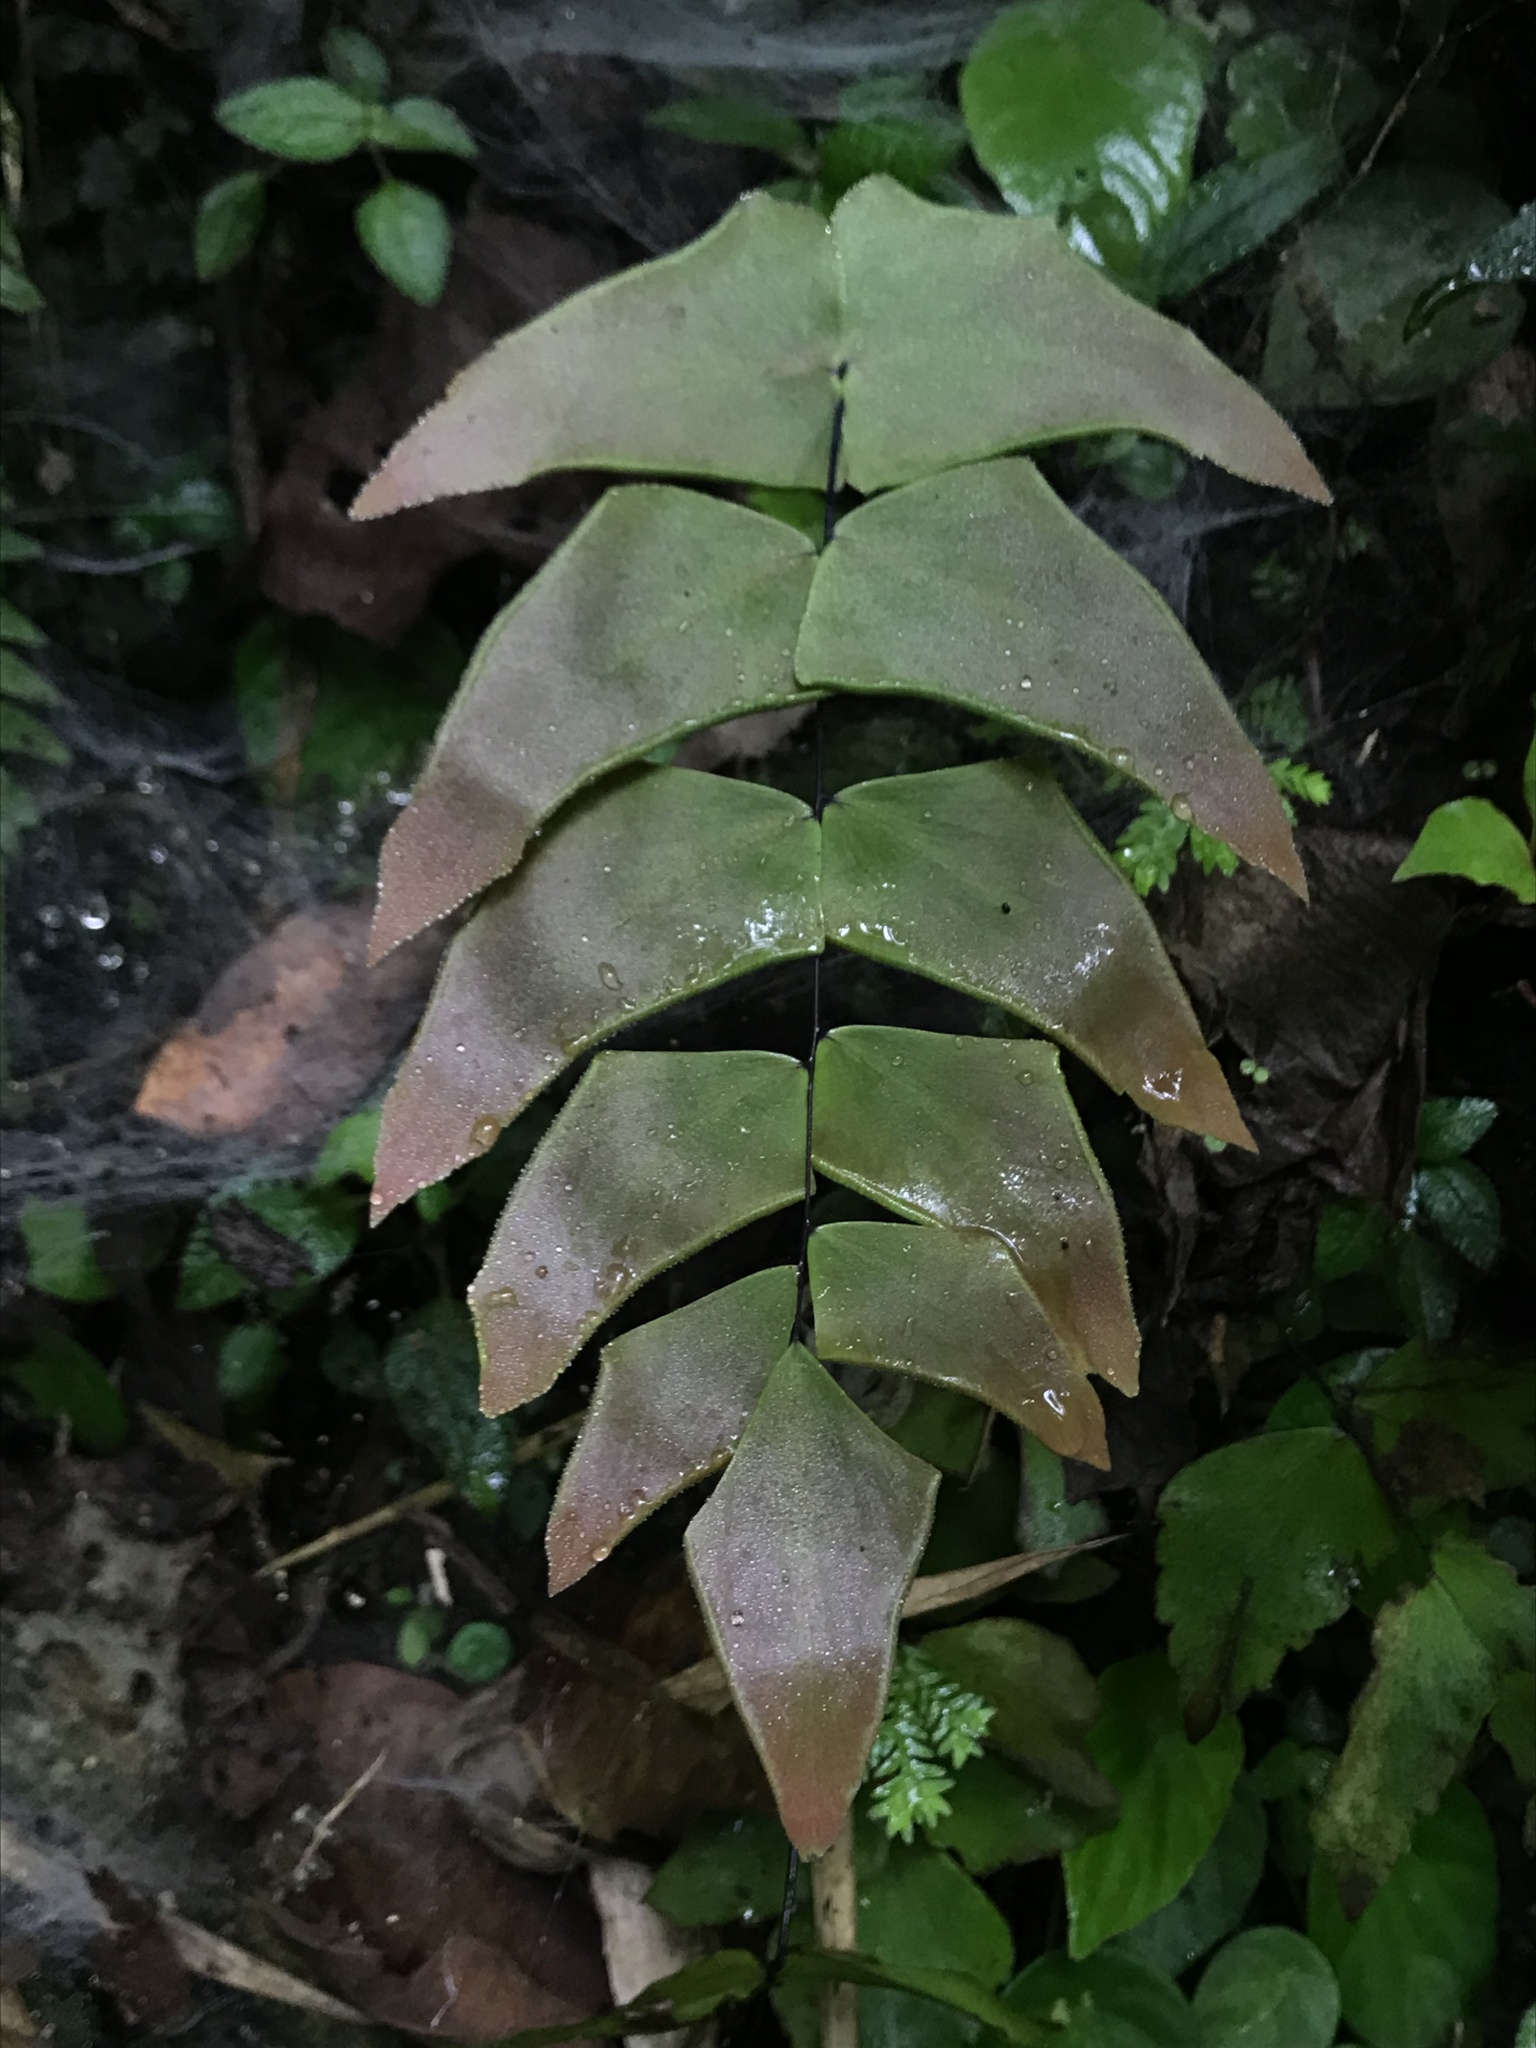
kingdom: Plantae
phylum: Tracheophyta
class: Polypodiopsida
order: Polypodiales
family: Pteridaceae
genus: Adiantum
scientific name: Adiantum macrophyllum
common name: Largeleaf maidenhair
